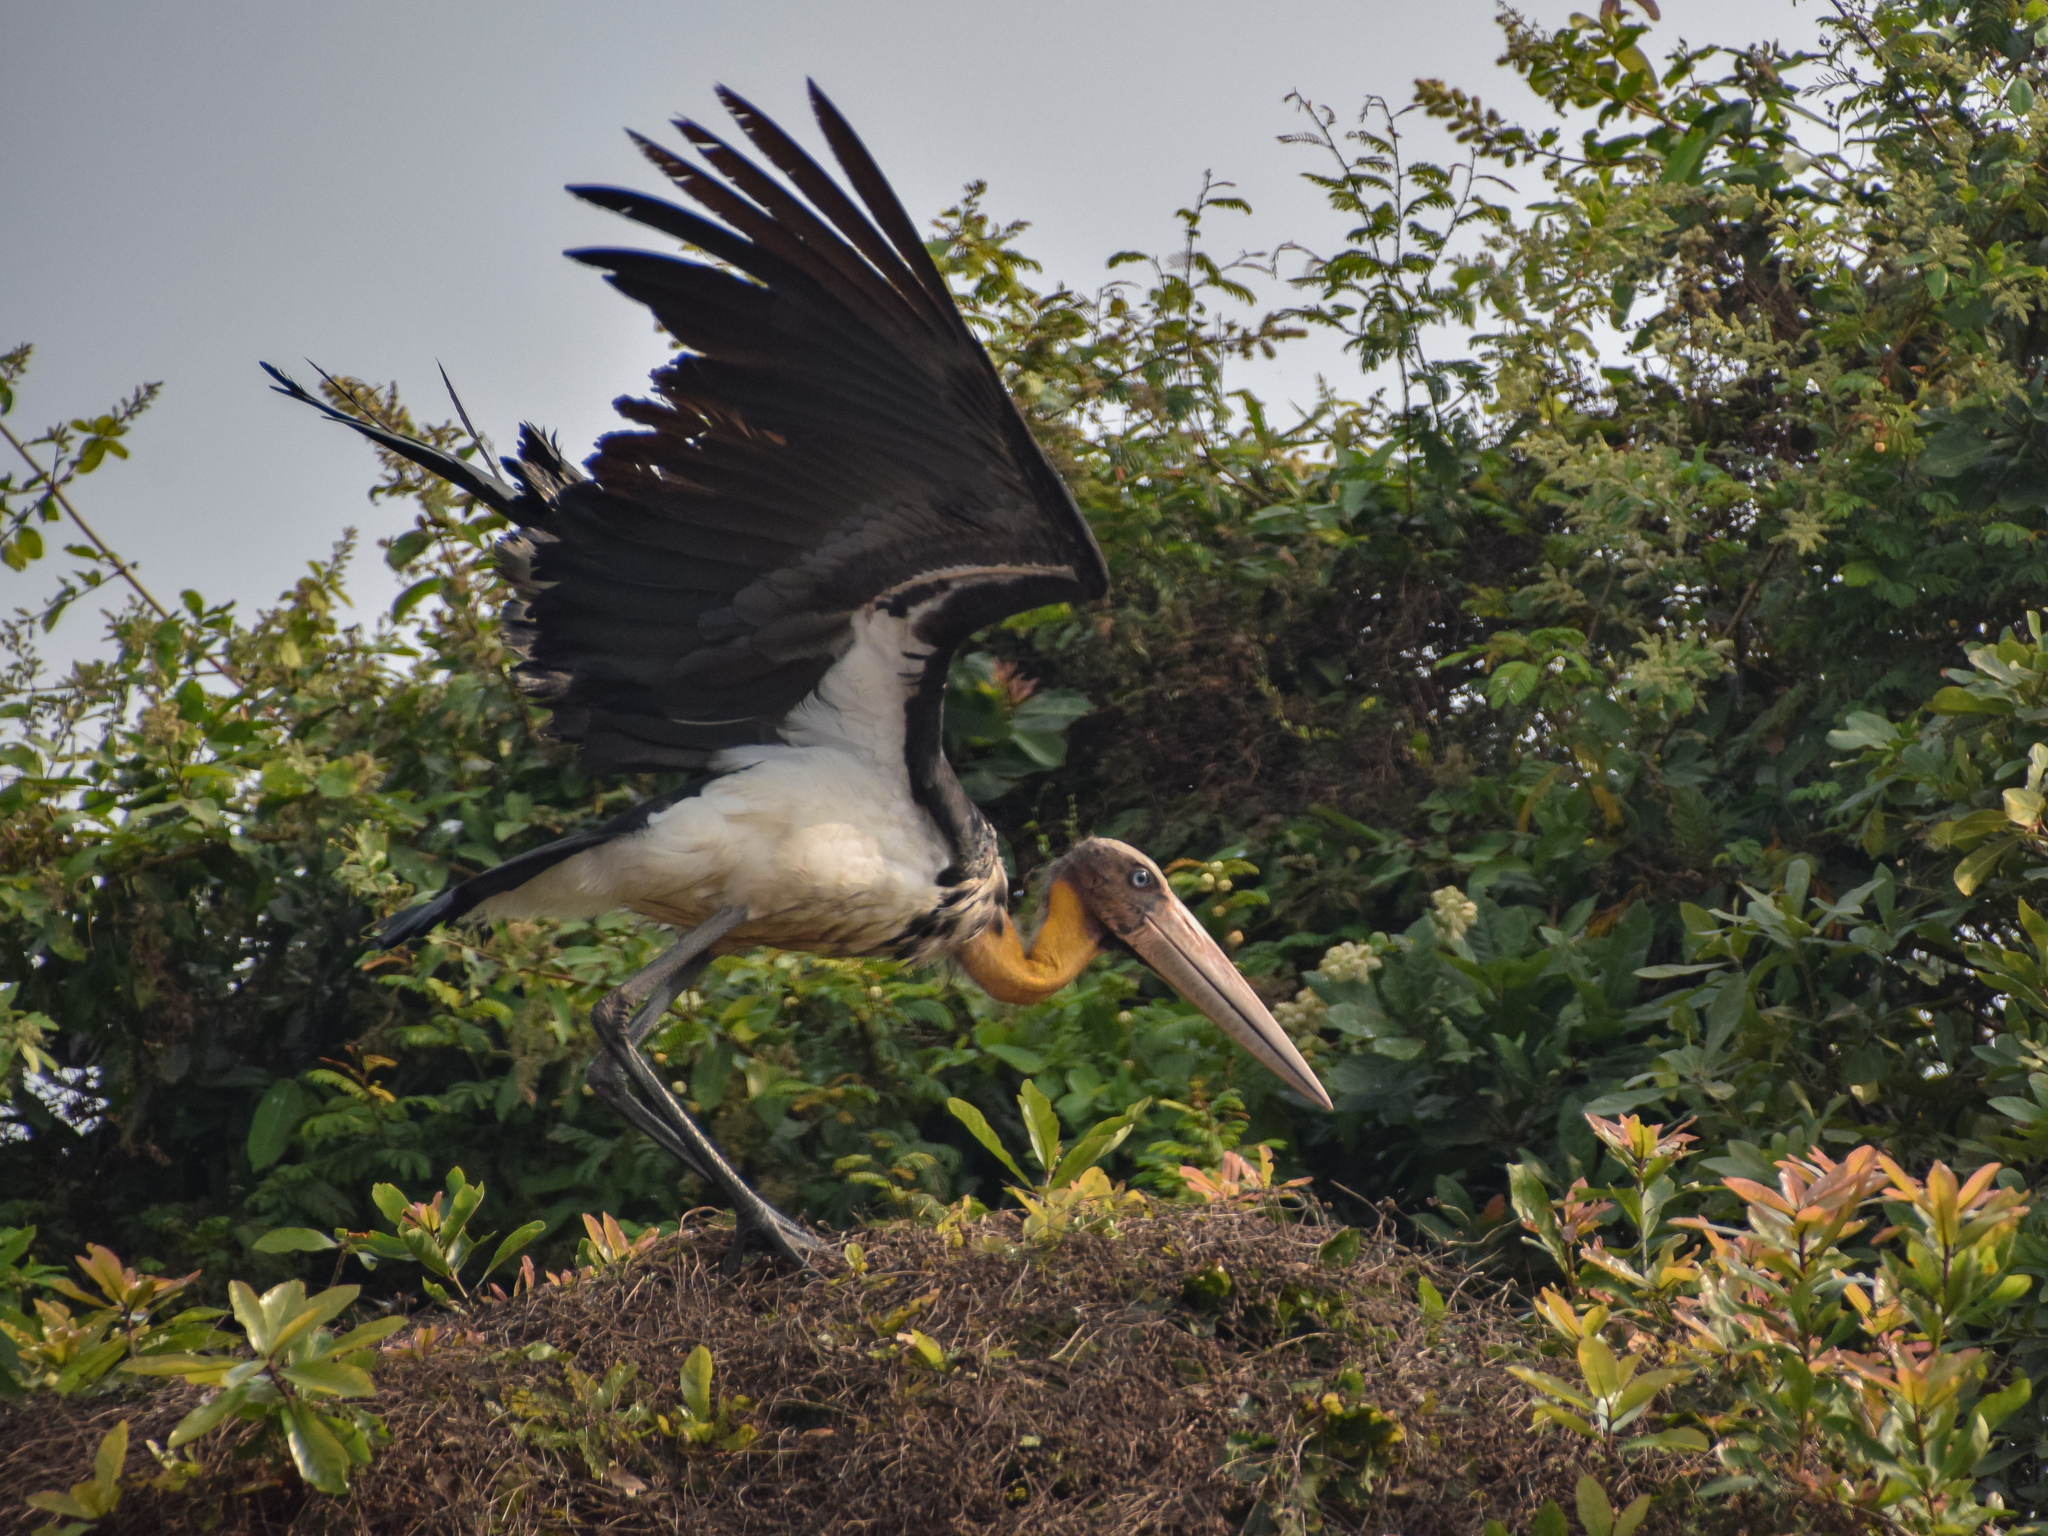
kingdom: Animalia
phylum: Chordata
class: Aves
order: Ciconiiformes
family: Ciconiidae
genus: Leptoptilos
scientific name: Leptoptilos javanicus
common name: Lesser adjutant
